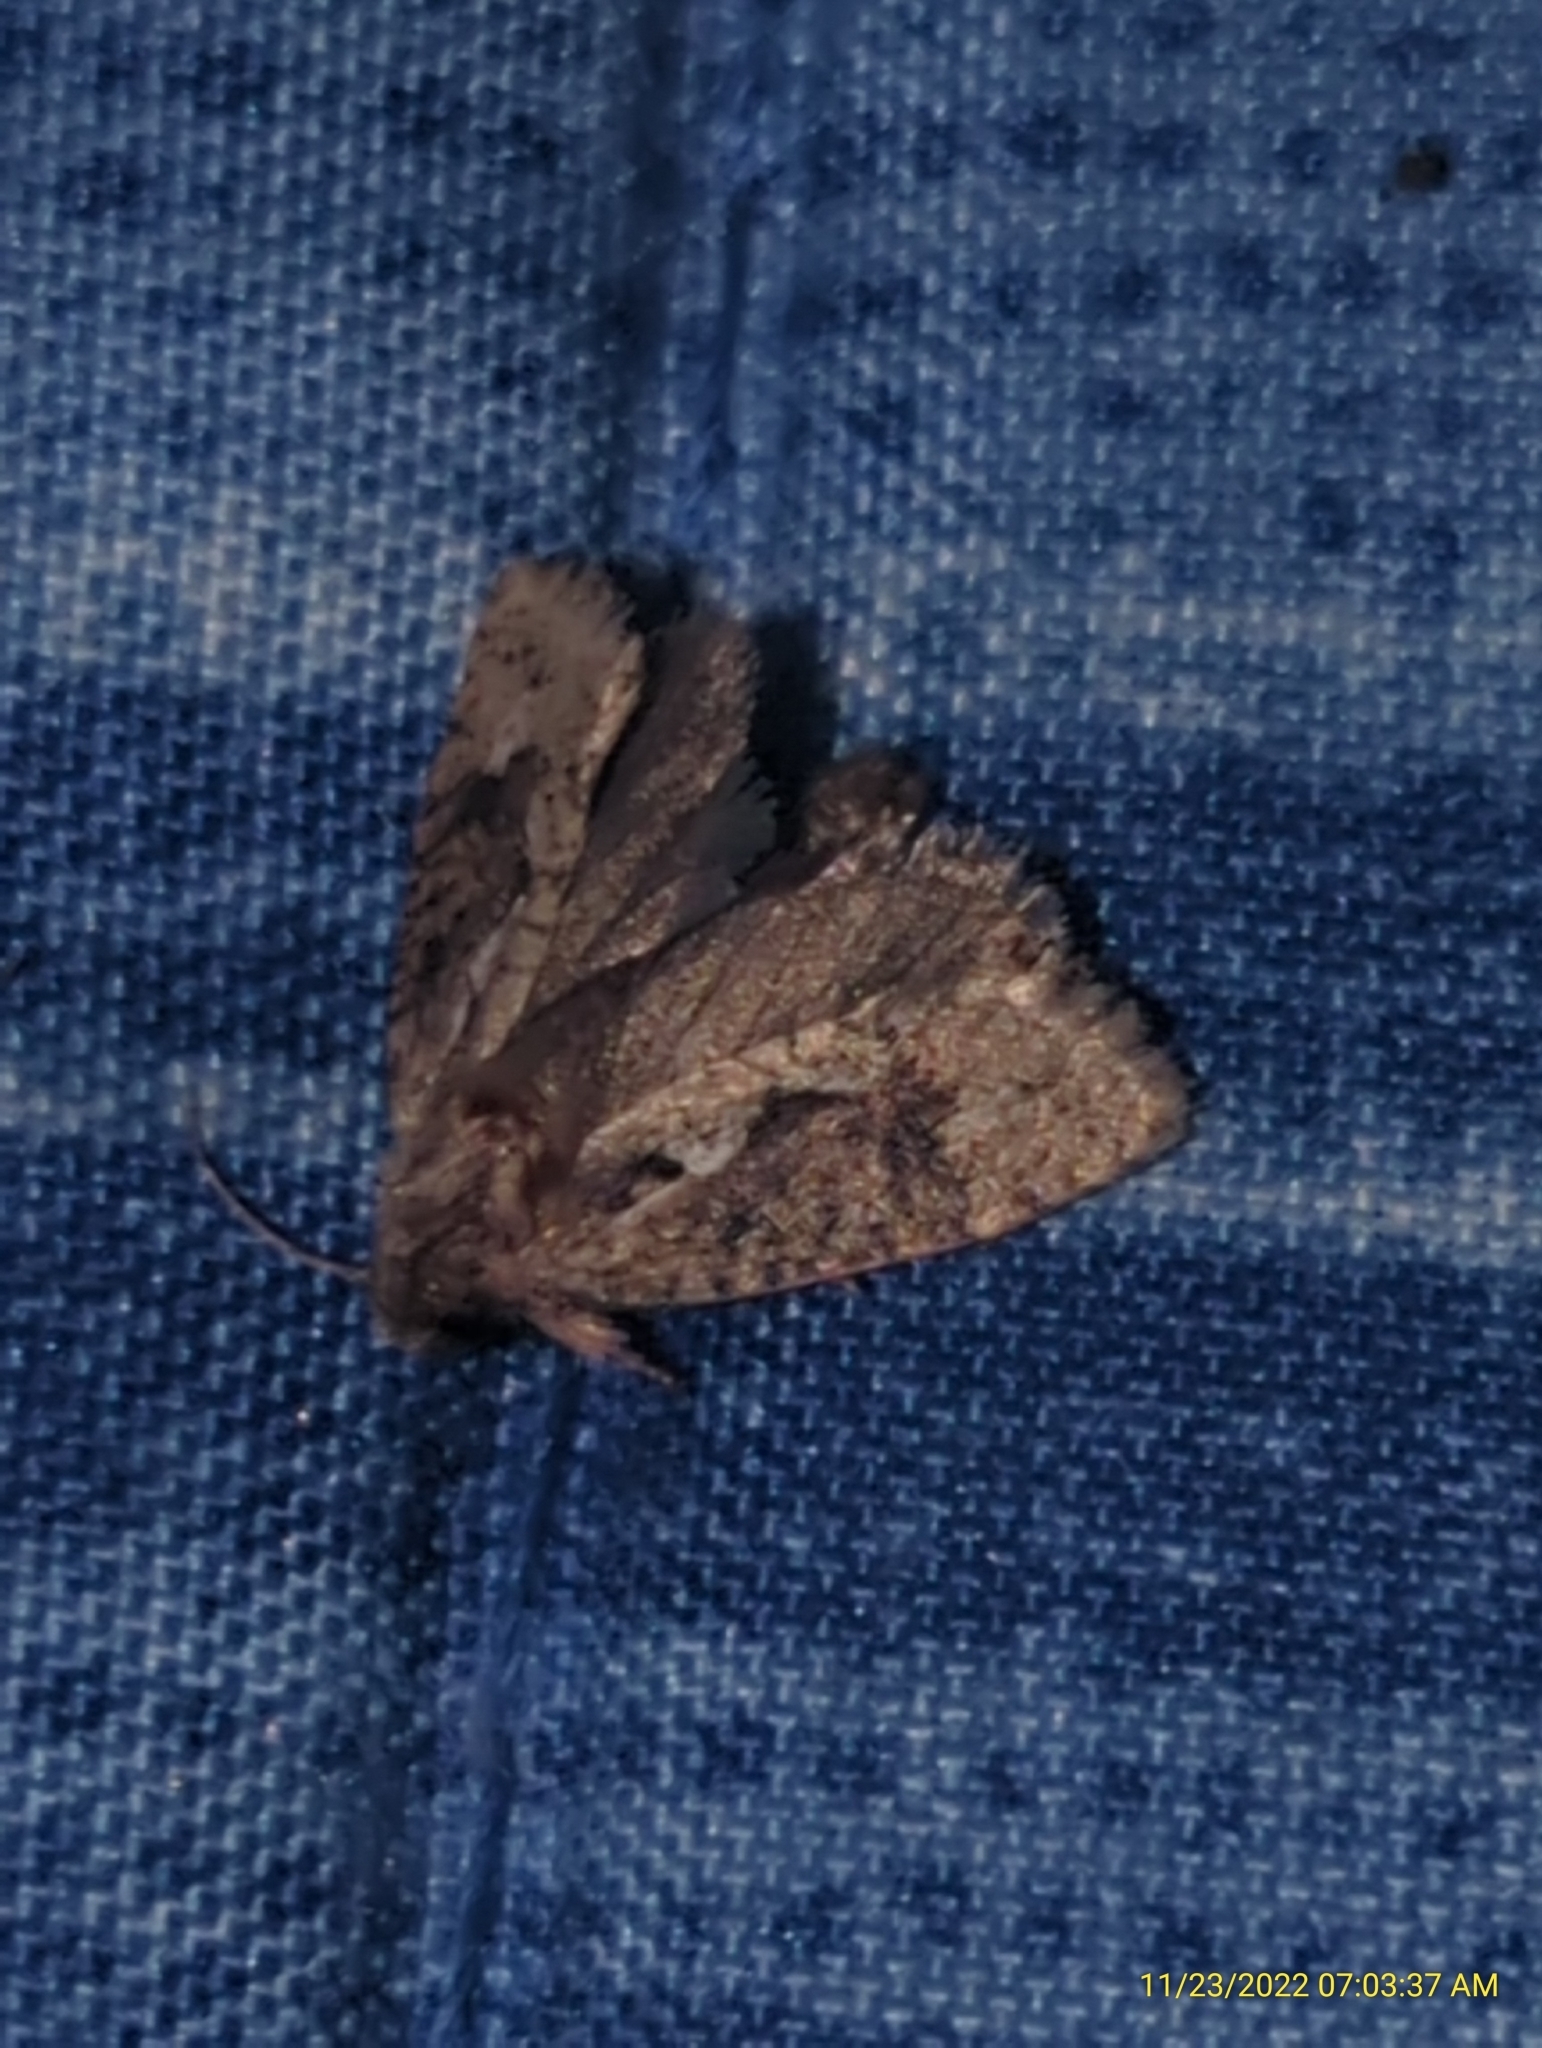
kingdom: Animalia
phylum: Arthropoda
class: Insecta
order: Lepidoptera
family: Tineidae
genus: Acrolophus
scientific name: Acrolophus walsinghami
